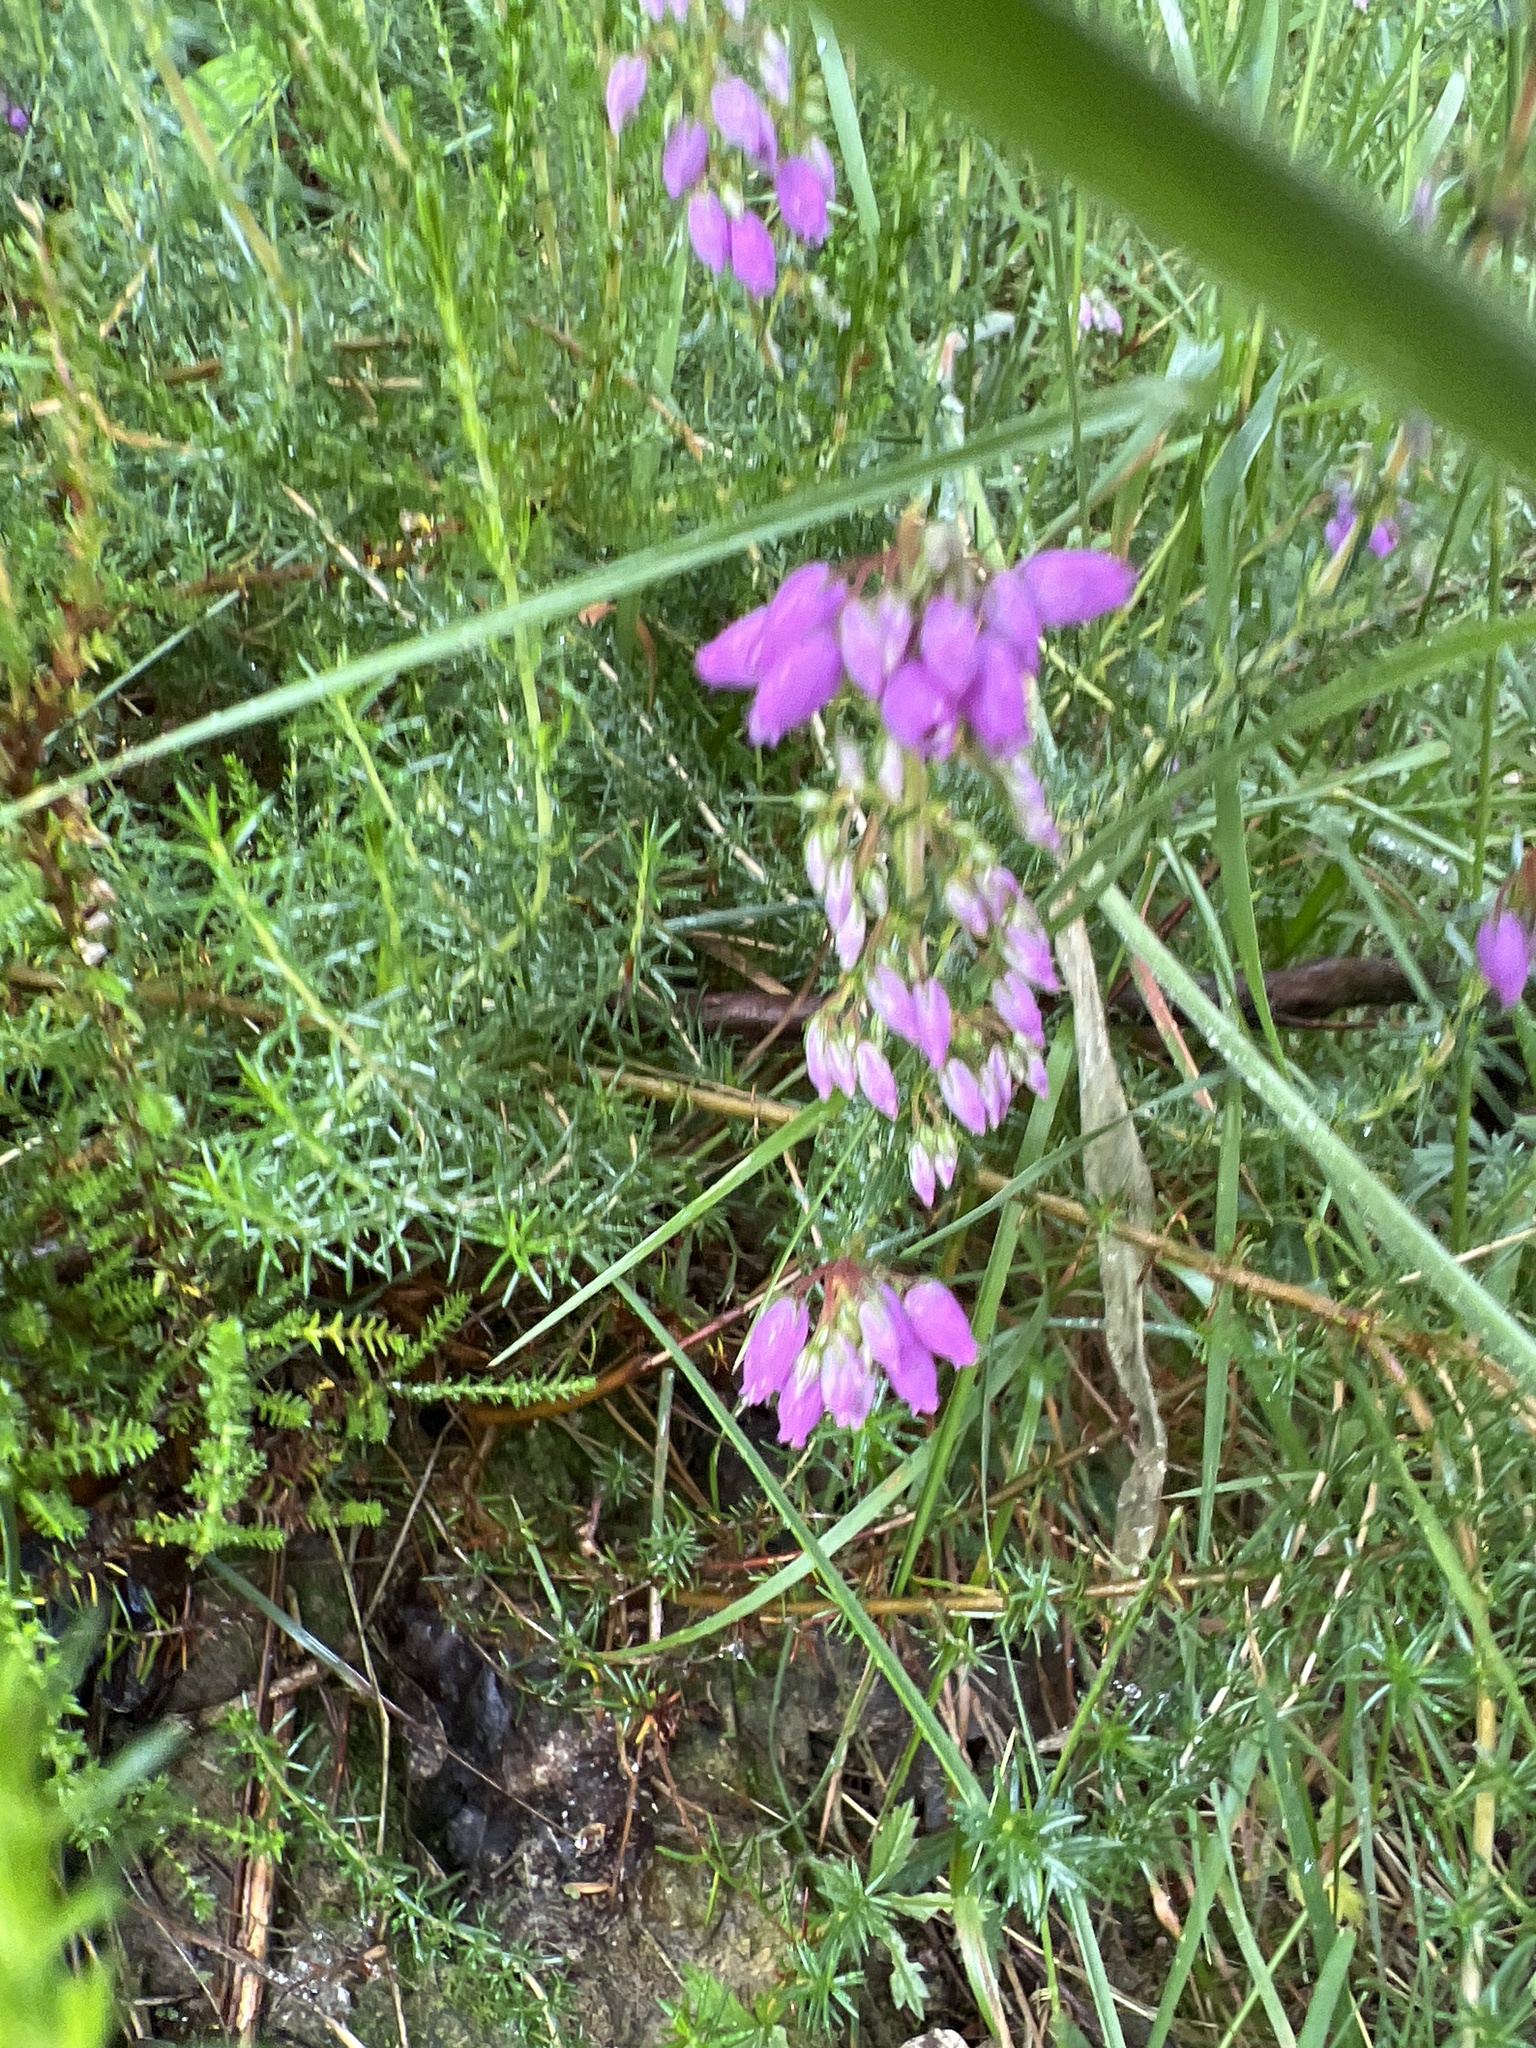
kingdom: Plantae
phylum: Tracheophyta
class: Magnoliopsida
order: Ericales
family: Ericaceae
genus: Erica
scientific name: Erica cinerea
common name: Bell heather
